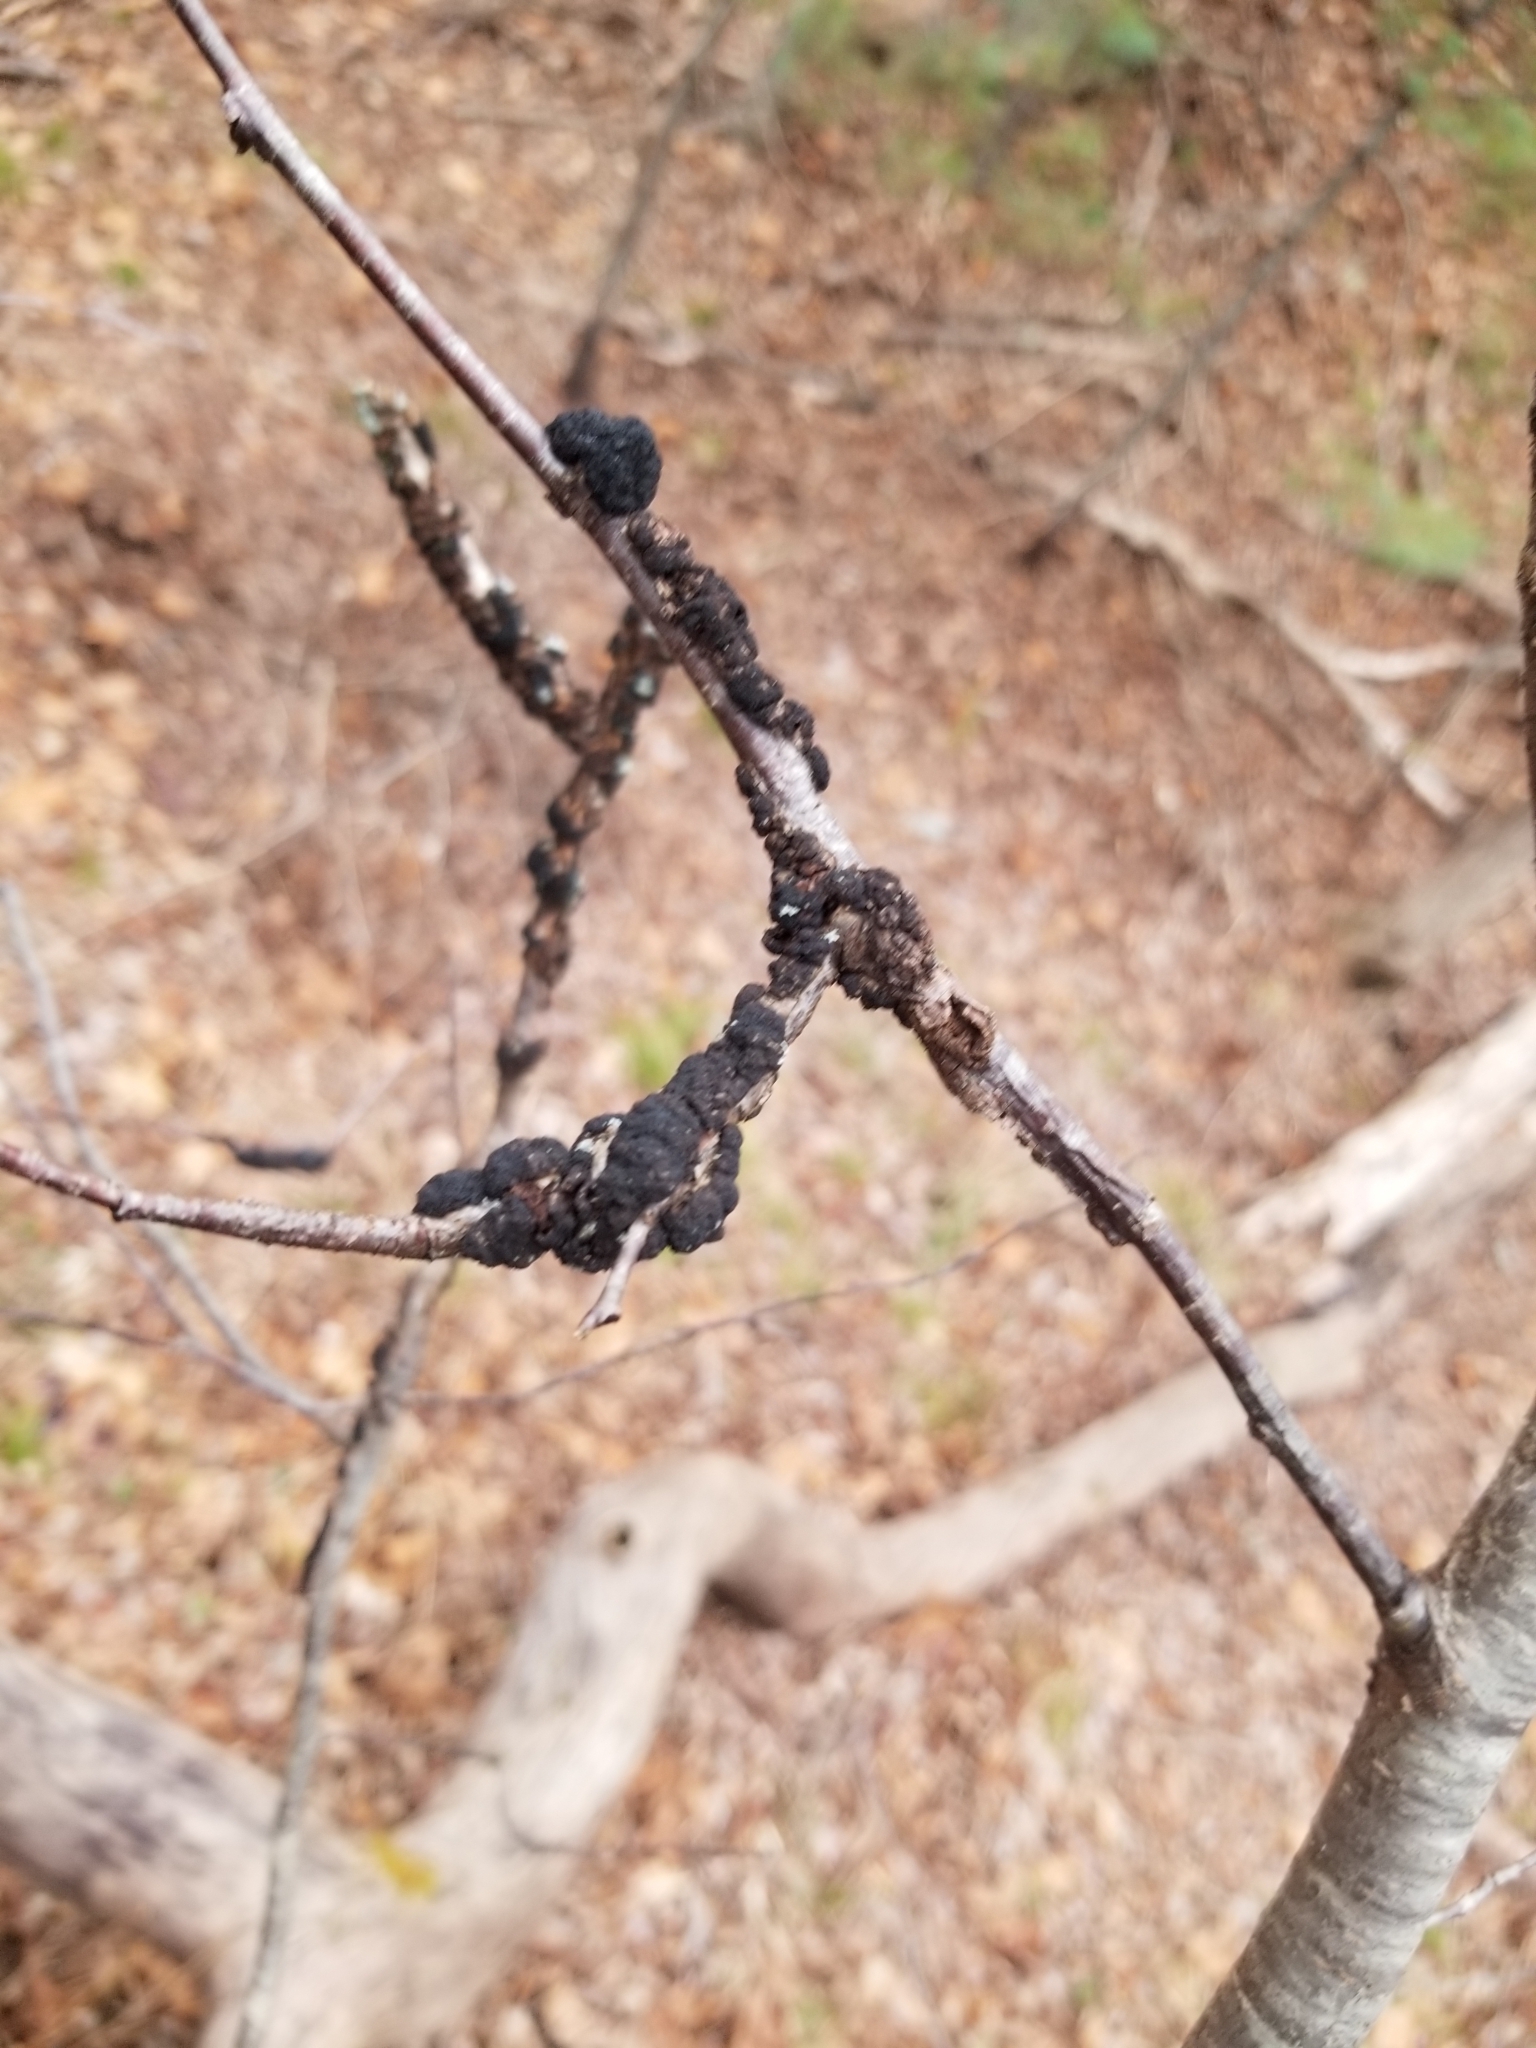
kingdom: Fungi
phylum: Ascomycota
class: Dothideomycetes
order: Venturiales
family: Venturiaceae
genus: Apiosporina
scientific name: Apiosporina morbosa
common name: Black knot
